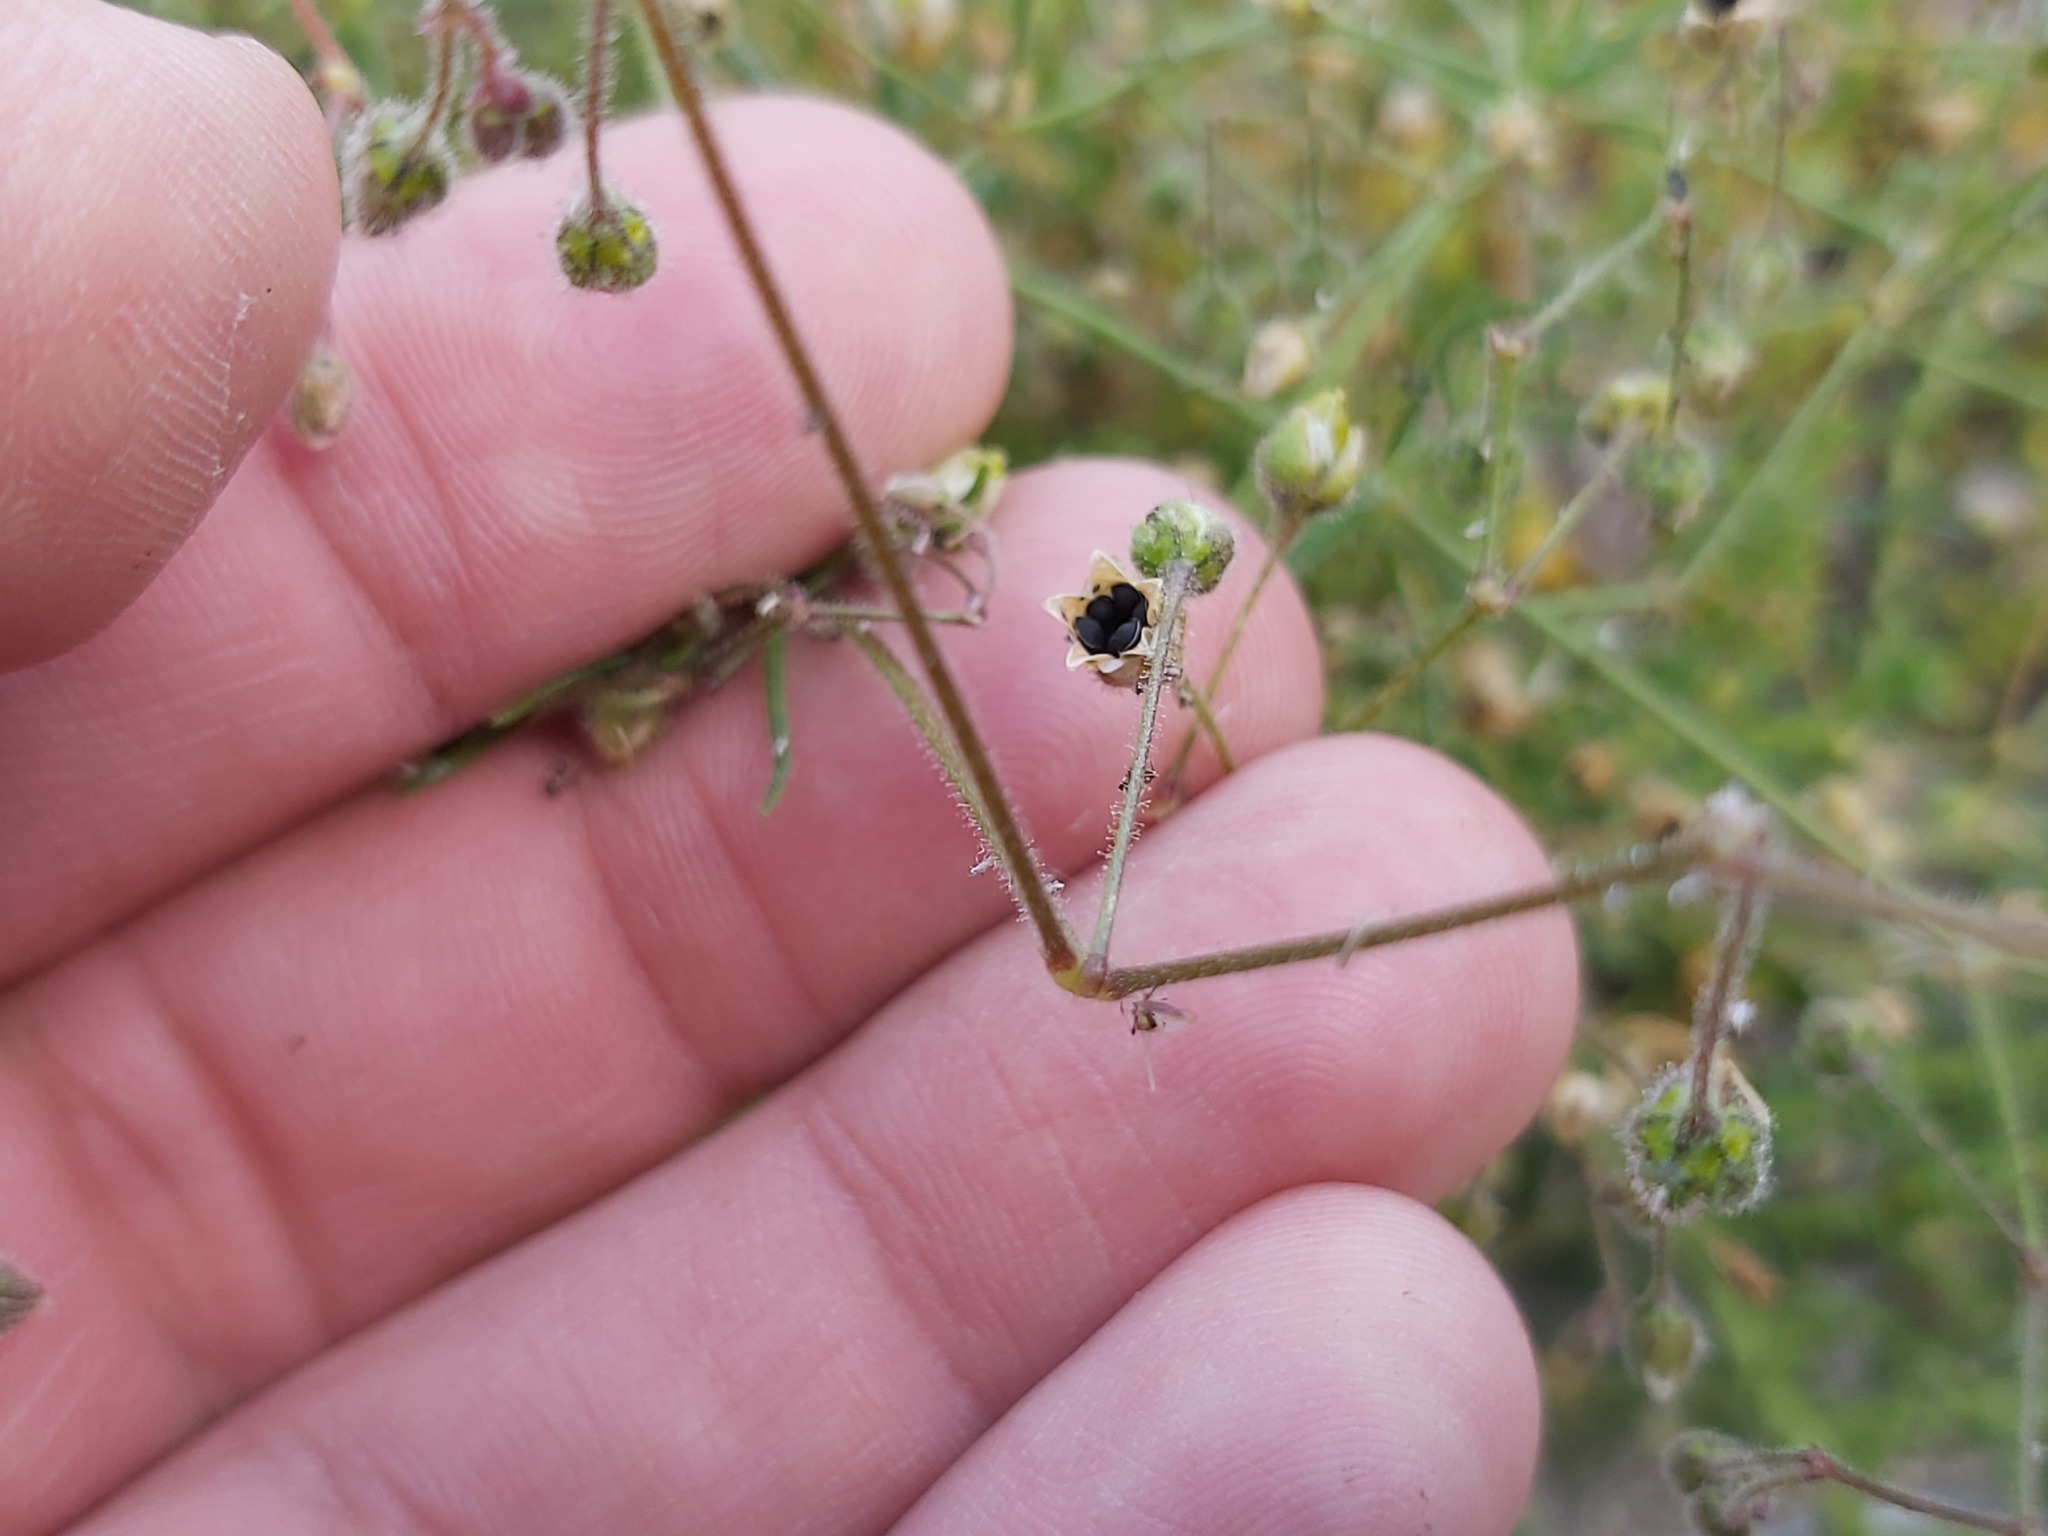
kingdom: Plantae
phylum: Tracheophyta
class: Magnoliopsida
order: Caryophyllales
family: Caryophyllaceae
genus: Spergula
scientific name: Spergula arvensis
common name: Corn spurrey
